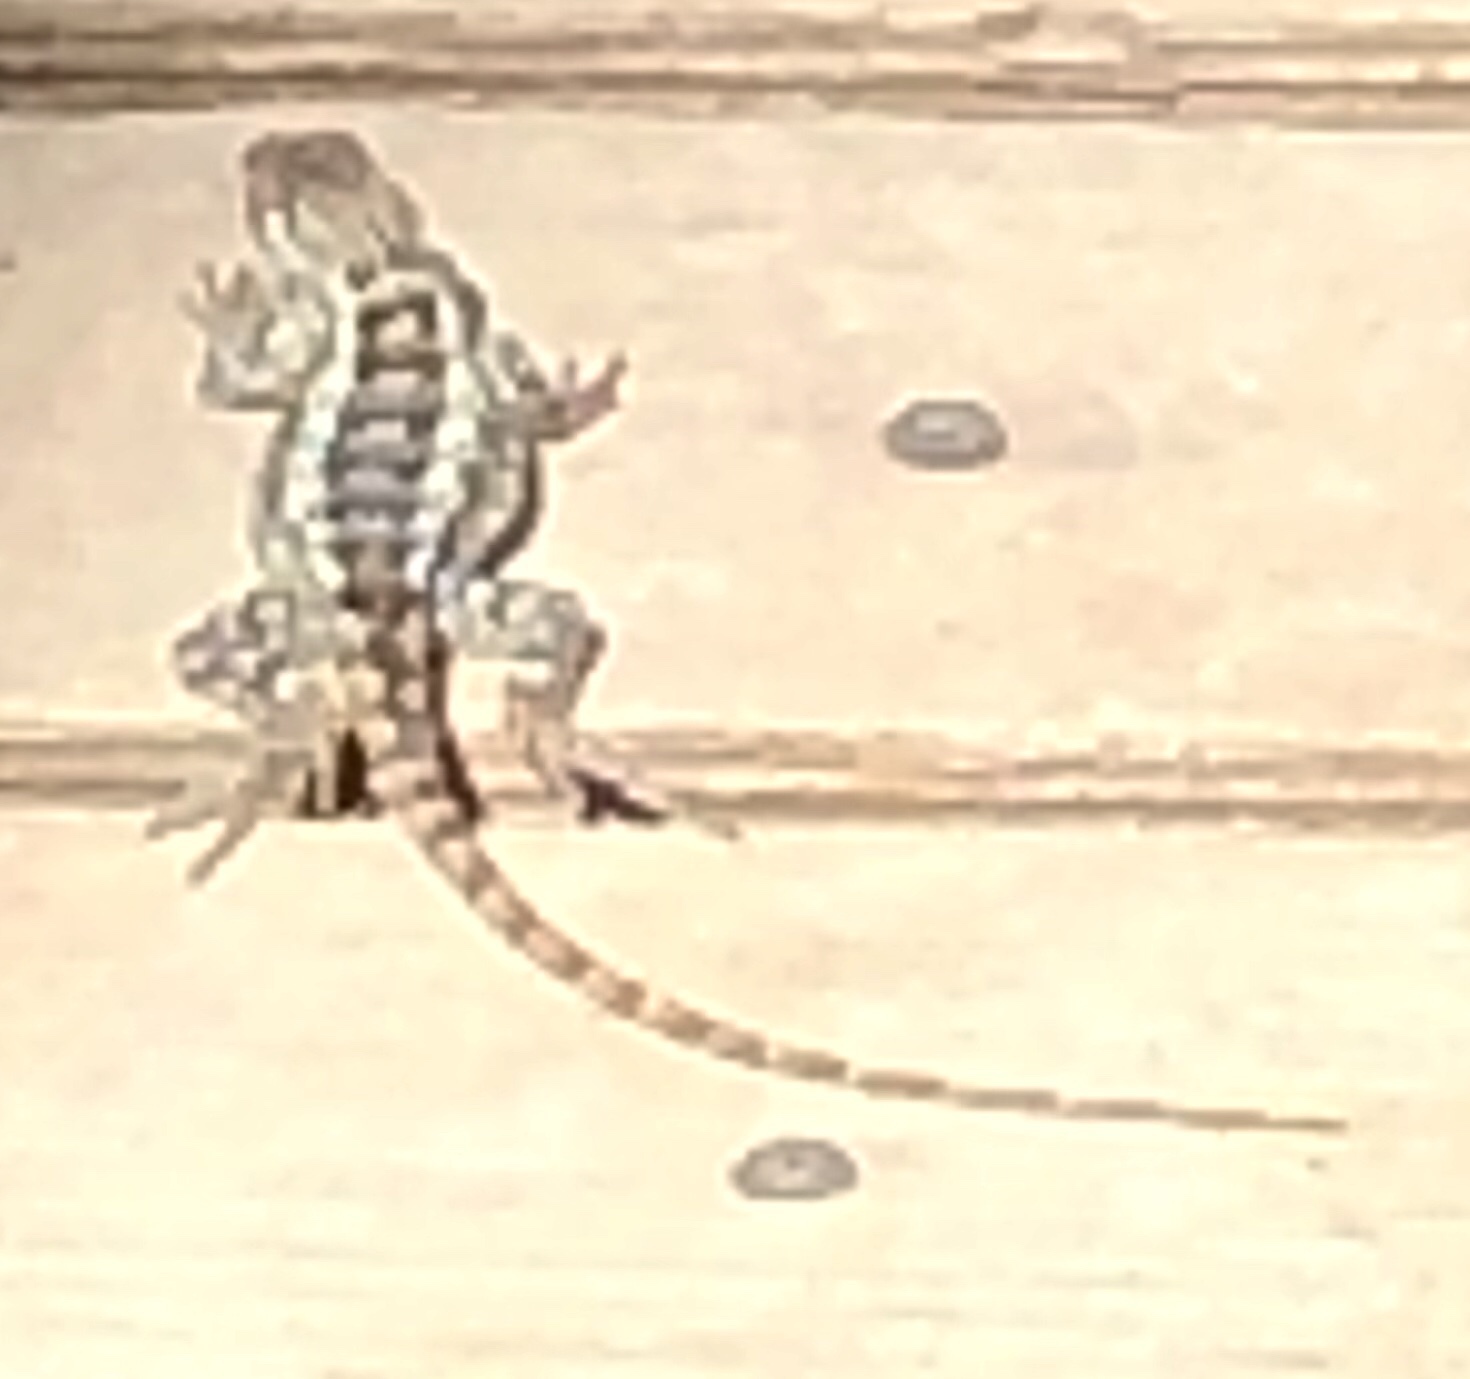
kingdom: Animalia
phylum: Chordata
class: Squamata
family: Phrynosomatidae
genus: Sceloporus
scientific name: Sceloporus olivaceus
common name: Texas spiny lizard
